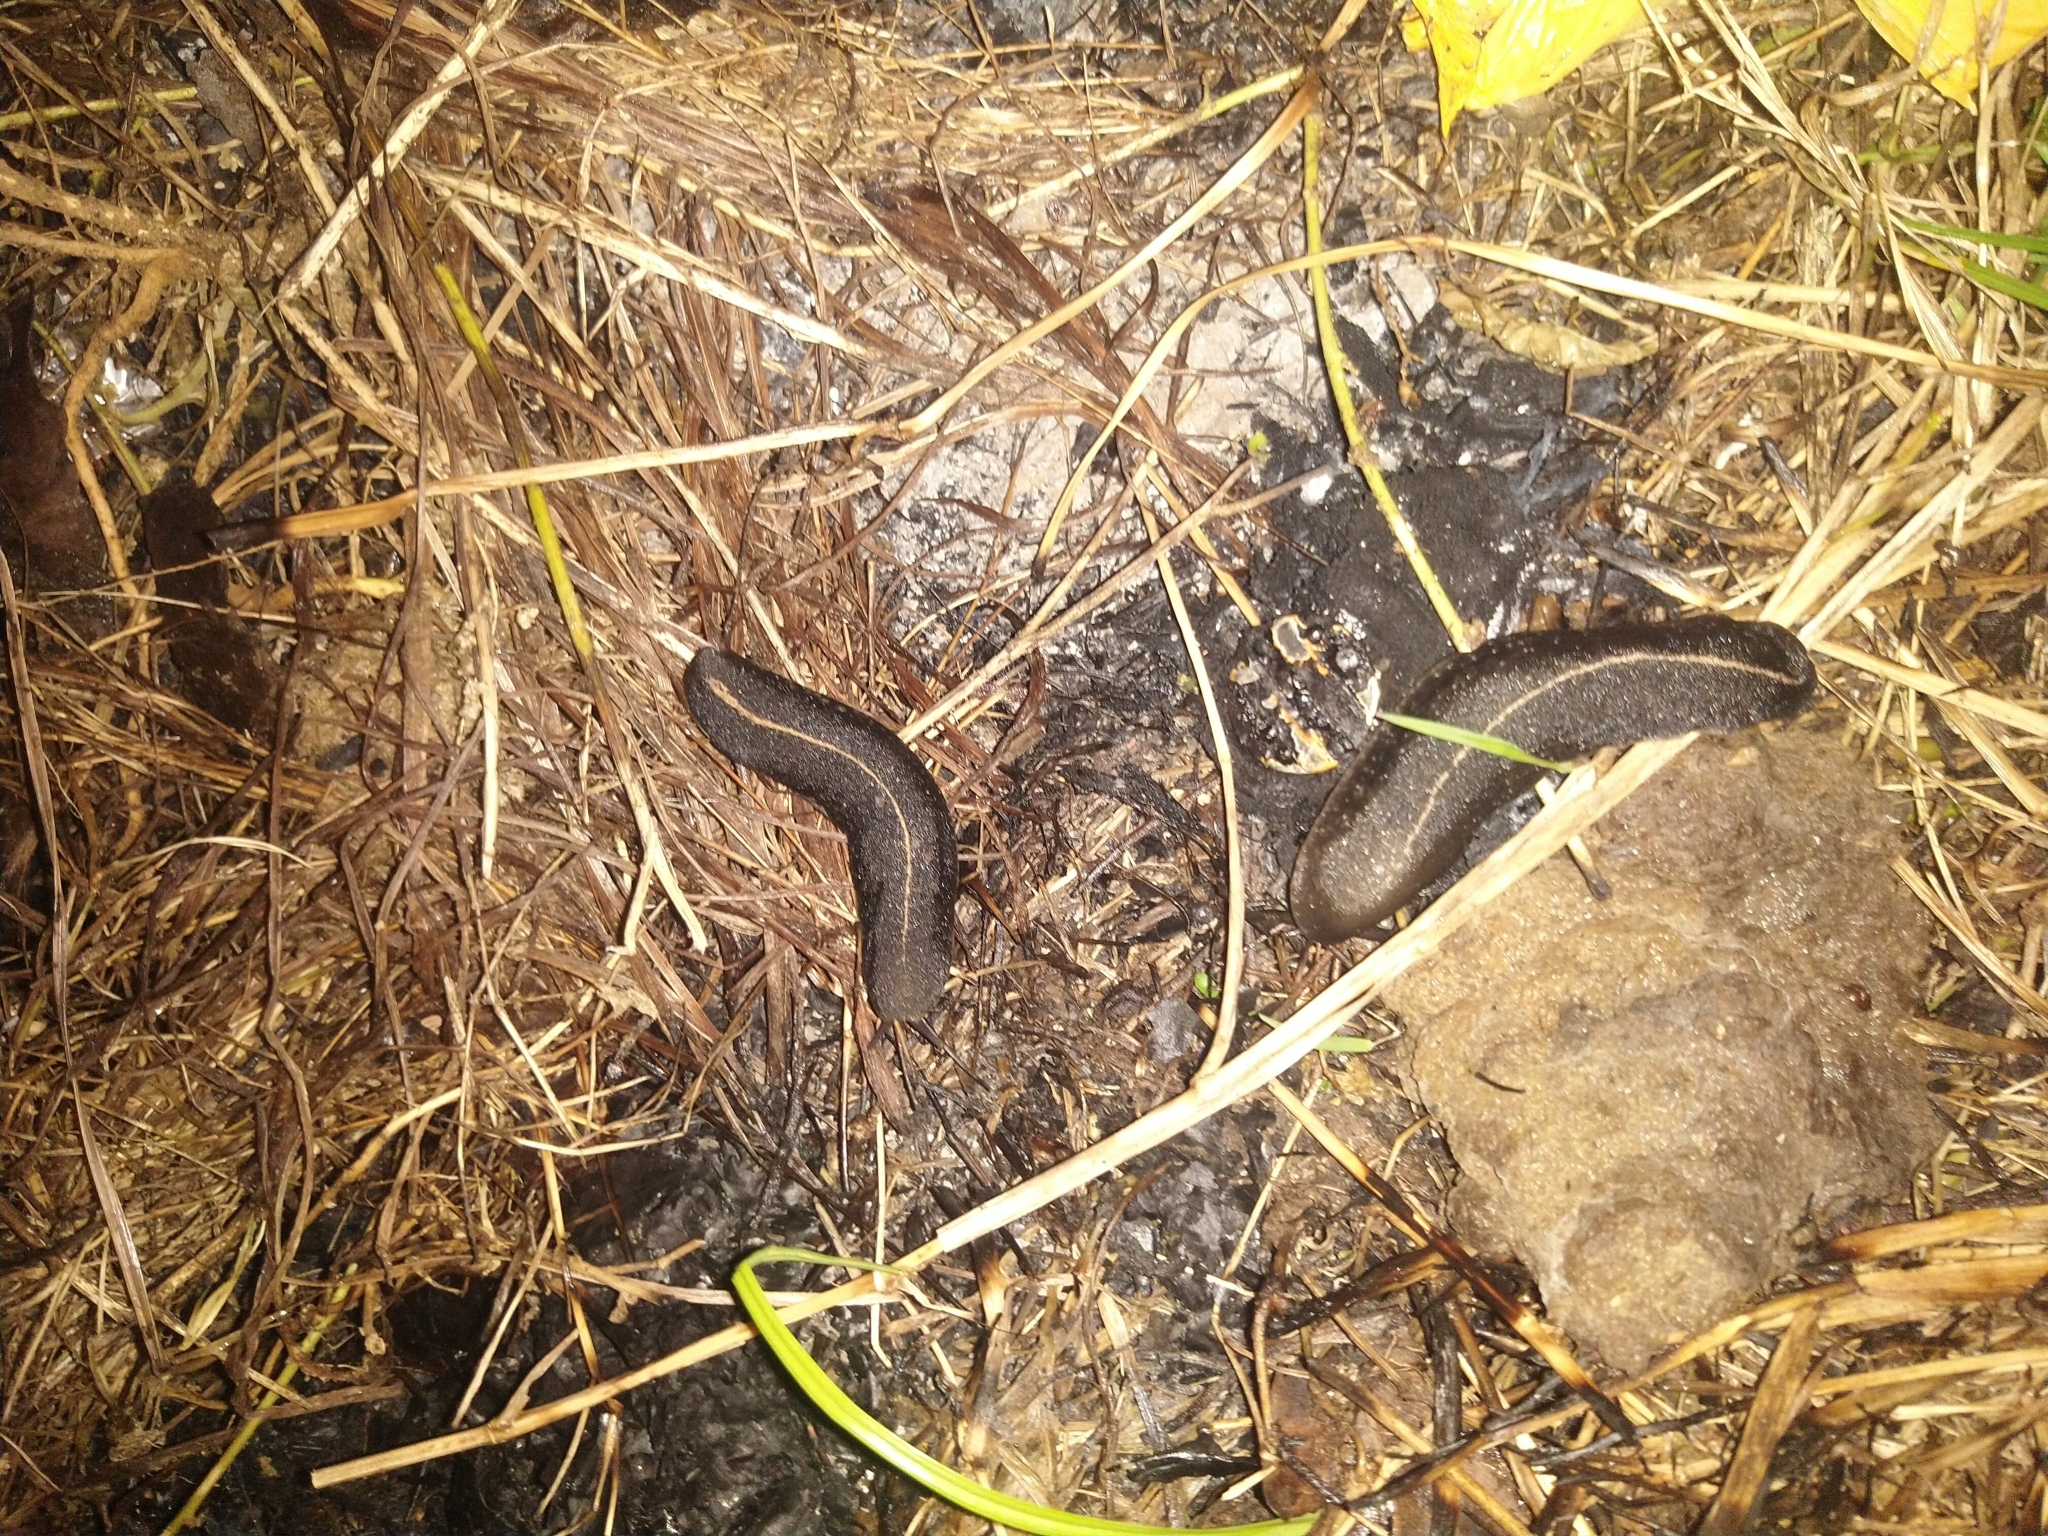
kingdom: Animalia
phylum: Mollusca
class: Gastropoda
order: Systellommatophora
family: Veronicellidae
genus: Laevicaulis
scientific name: Laevicaulis alte
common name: Tropical leatherleaf
